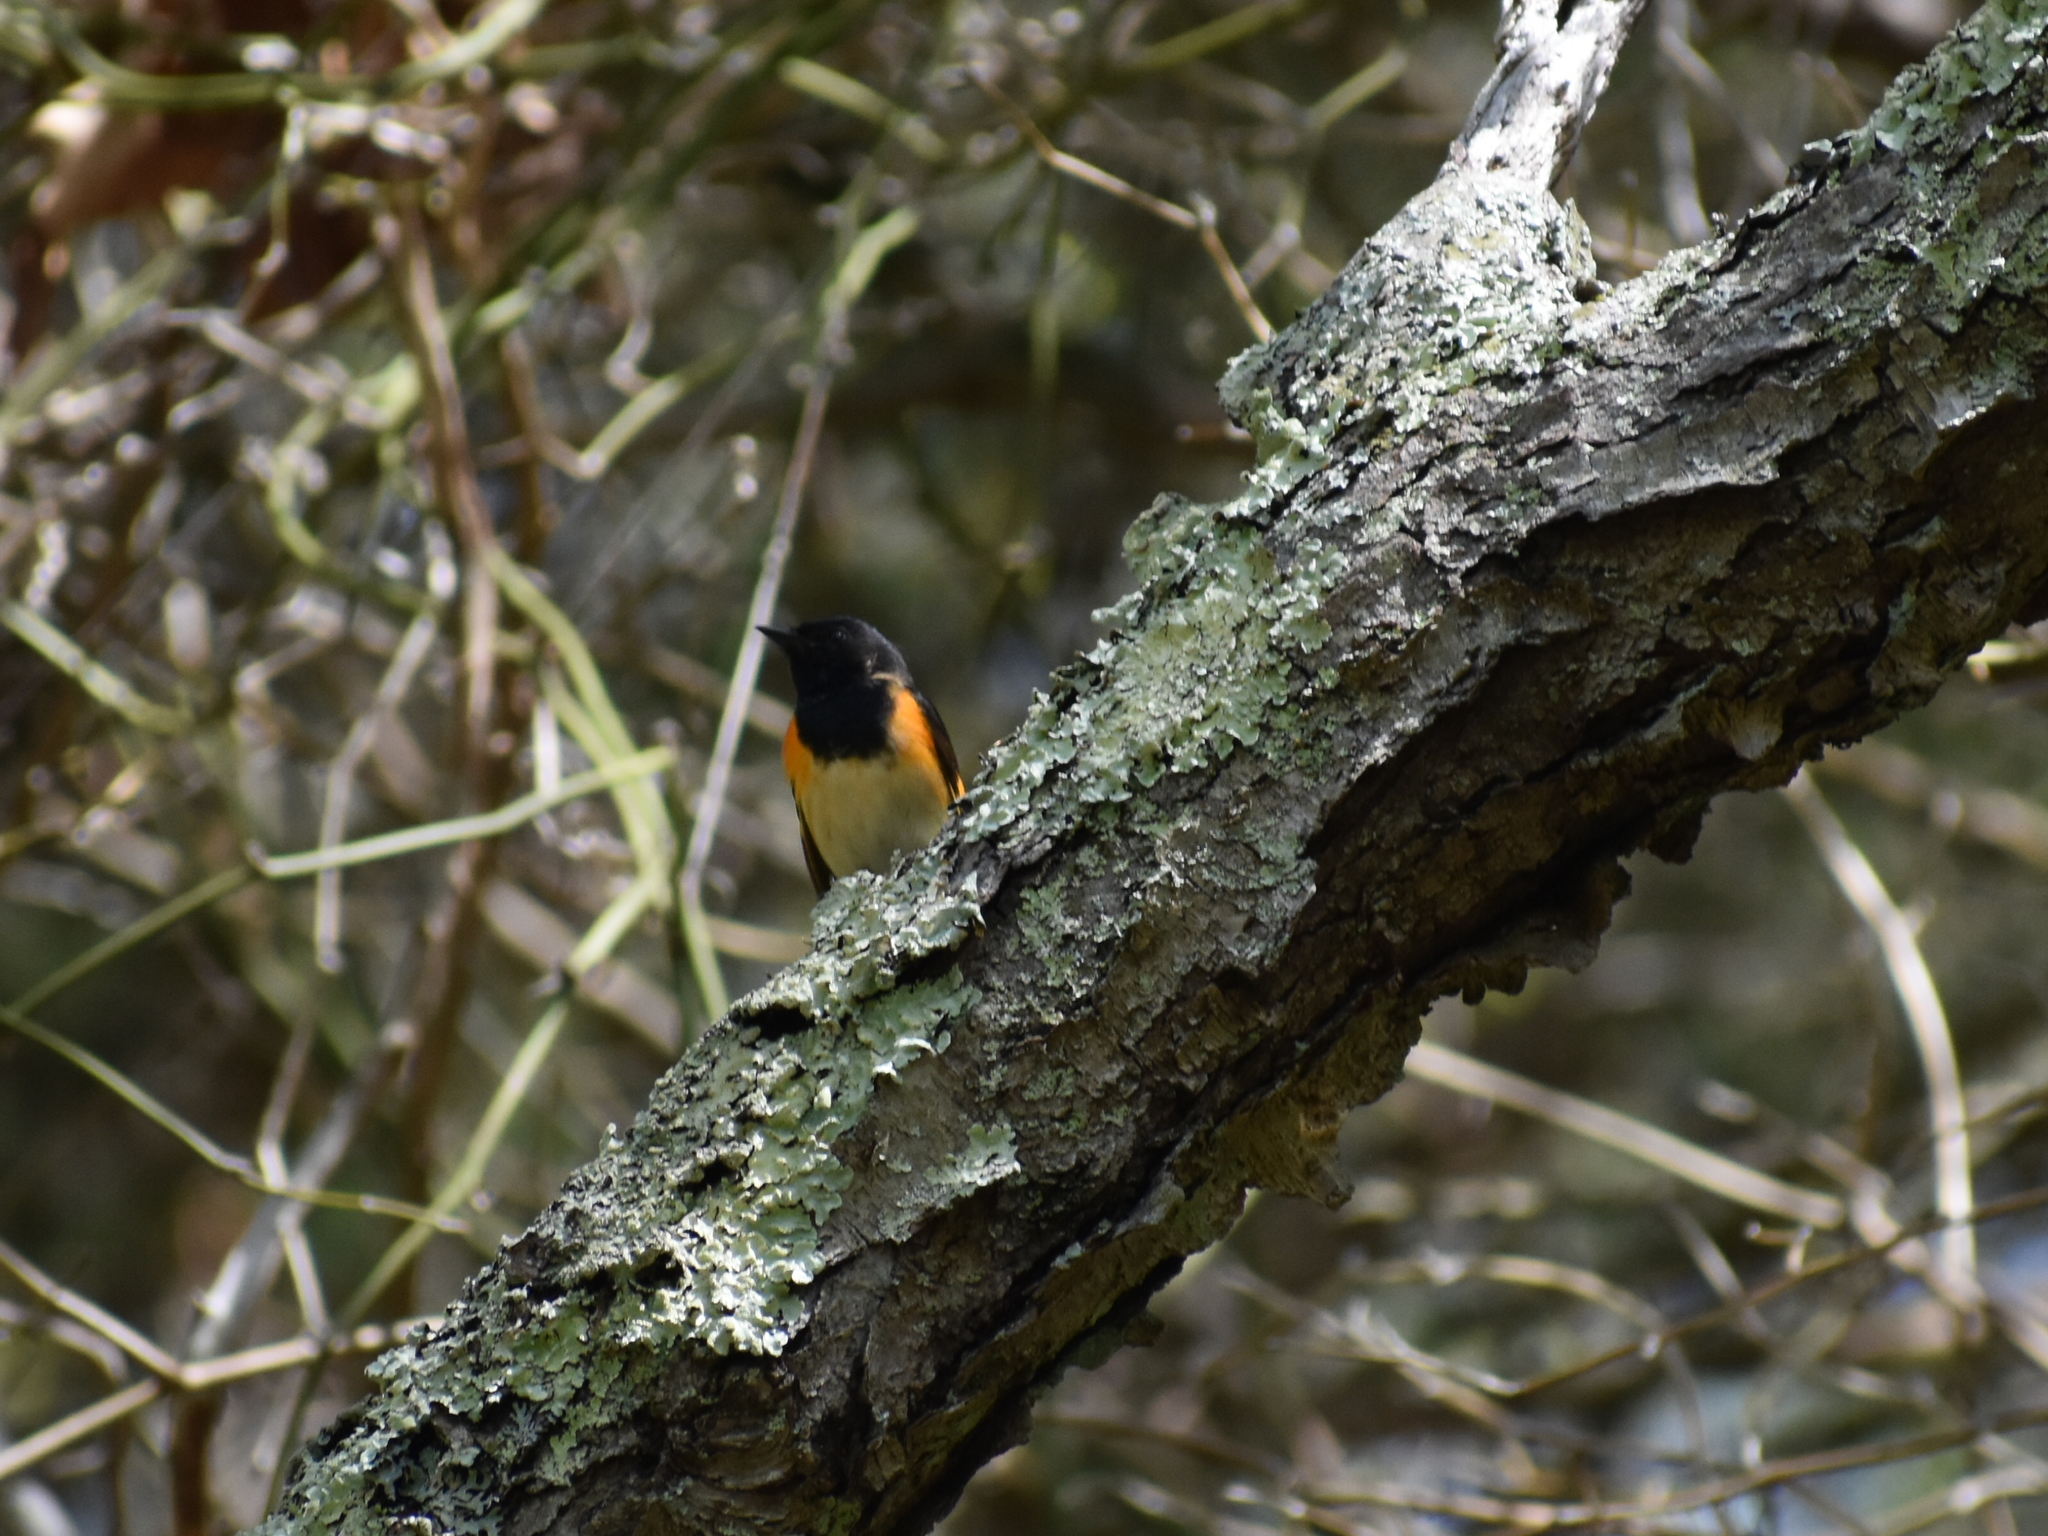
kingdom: Animalia
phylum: Chordata
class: Aves
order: Passeriformes
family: Parulidae
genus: Setophaga
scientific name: Setophaga ruticilla
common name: American redstart
